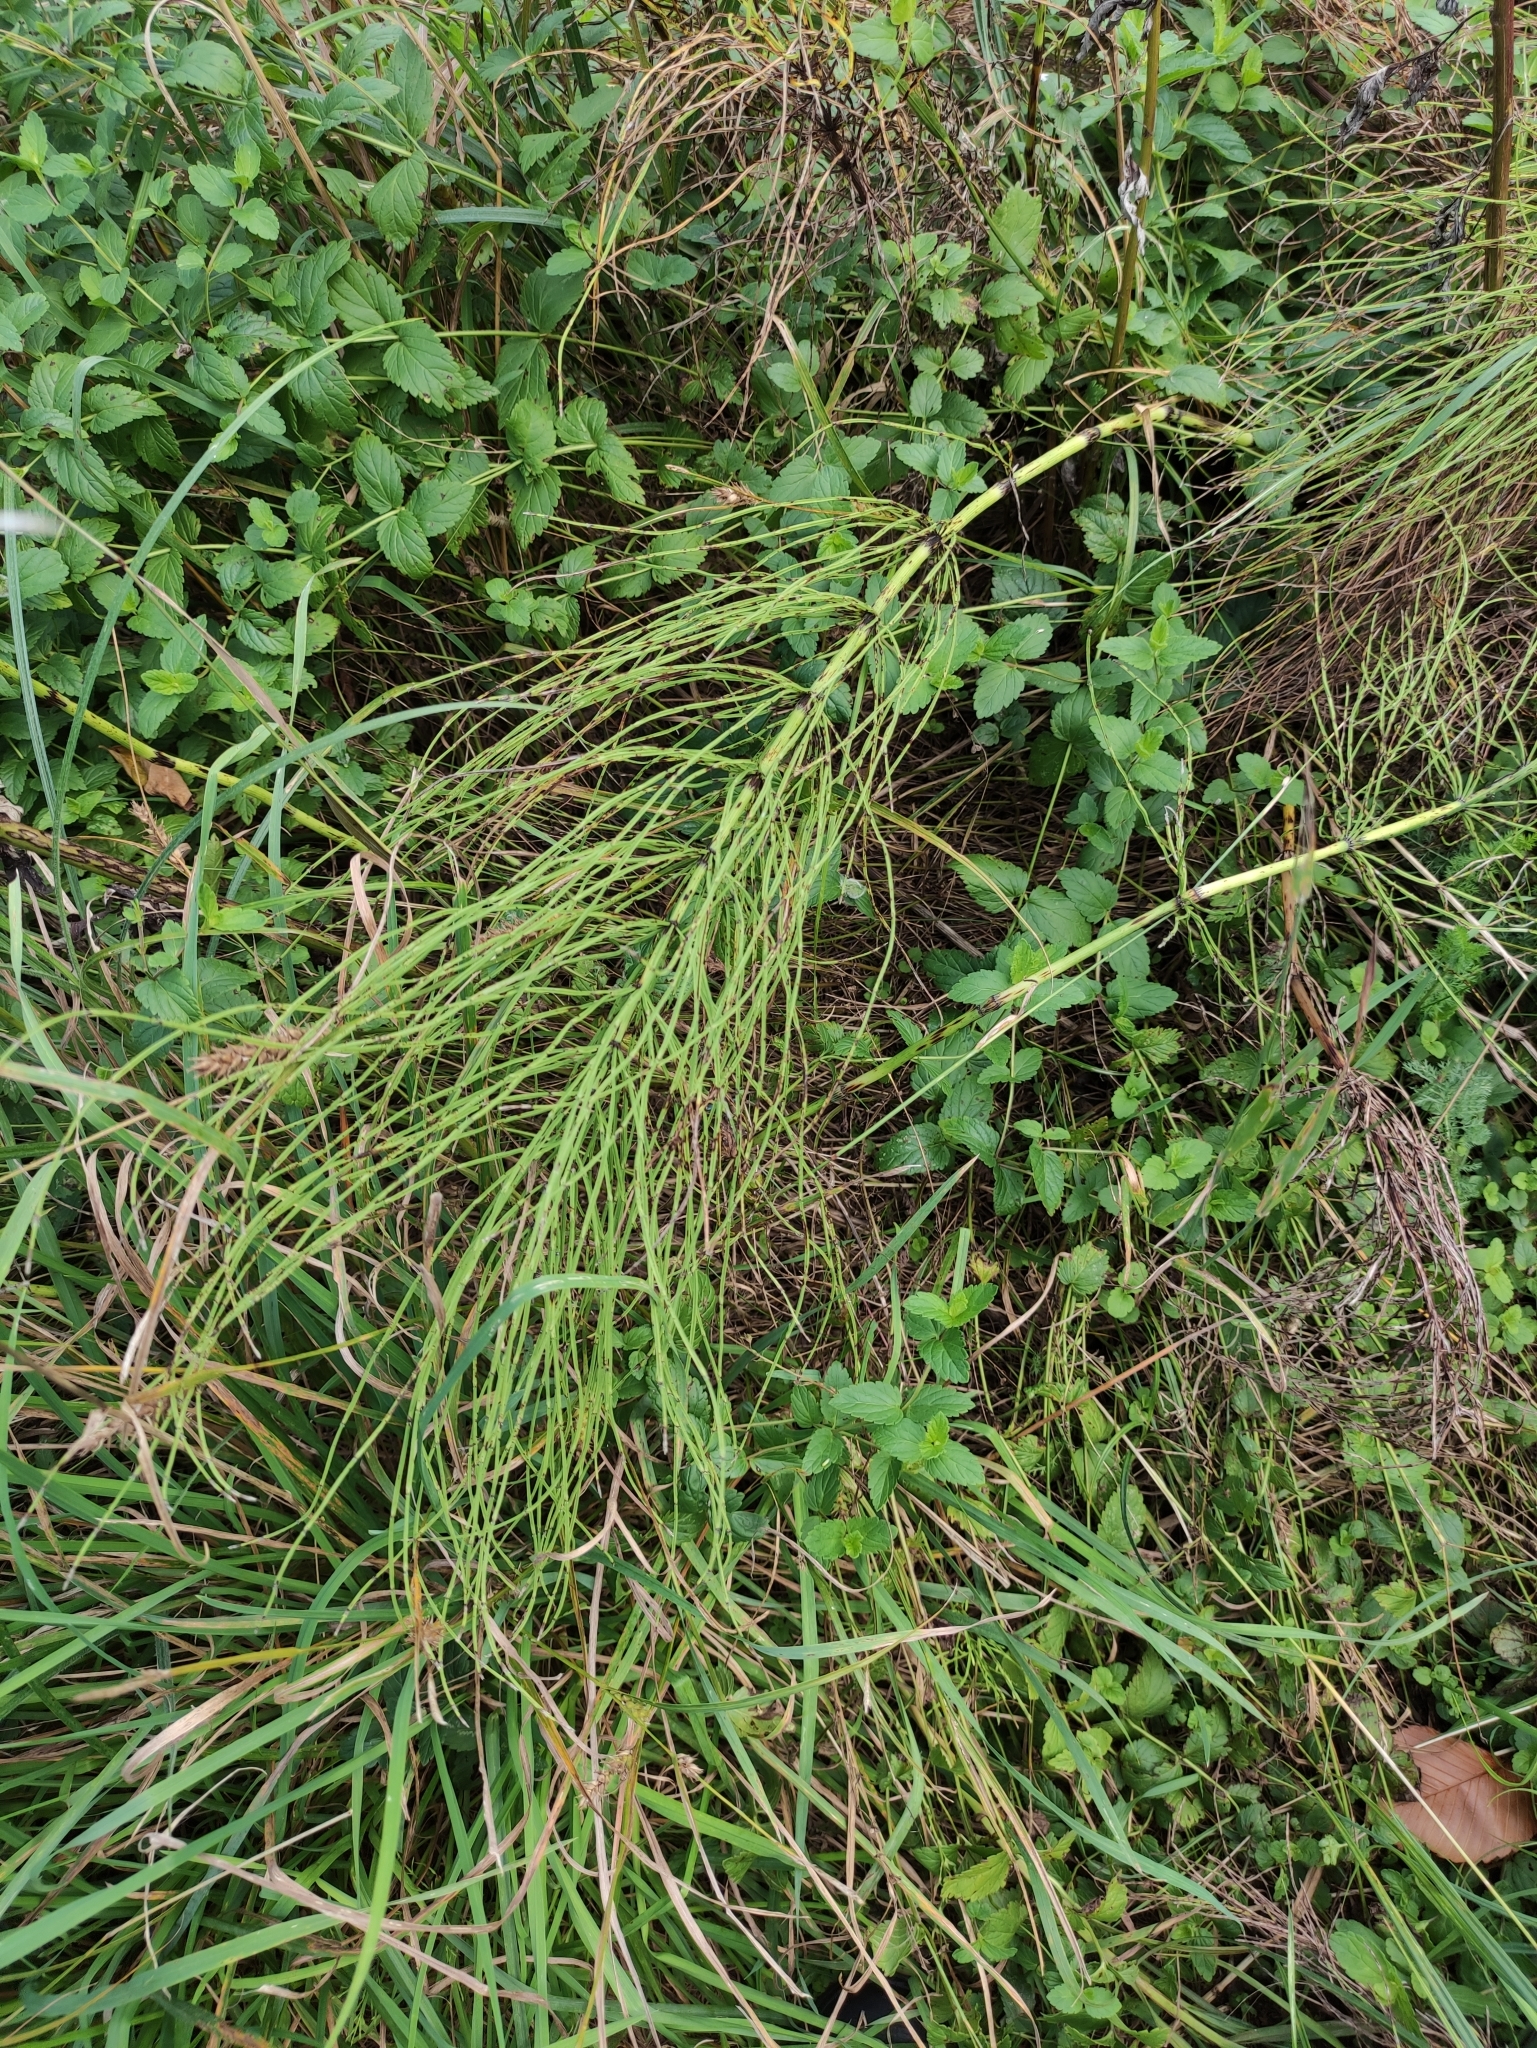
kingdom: Plantae
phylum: Tracheophyta
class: Polypodiopsida
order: Equisetales
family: Equisetaceae
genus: Equisetum
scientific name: Equisetum arvense
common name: Field horsetail
